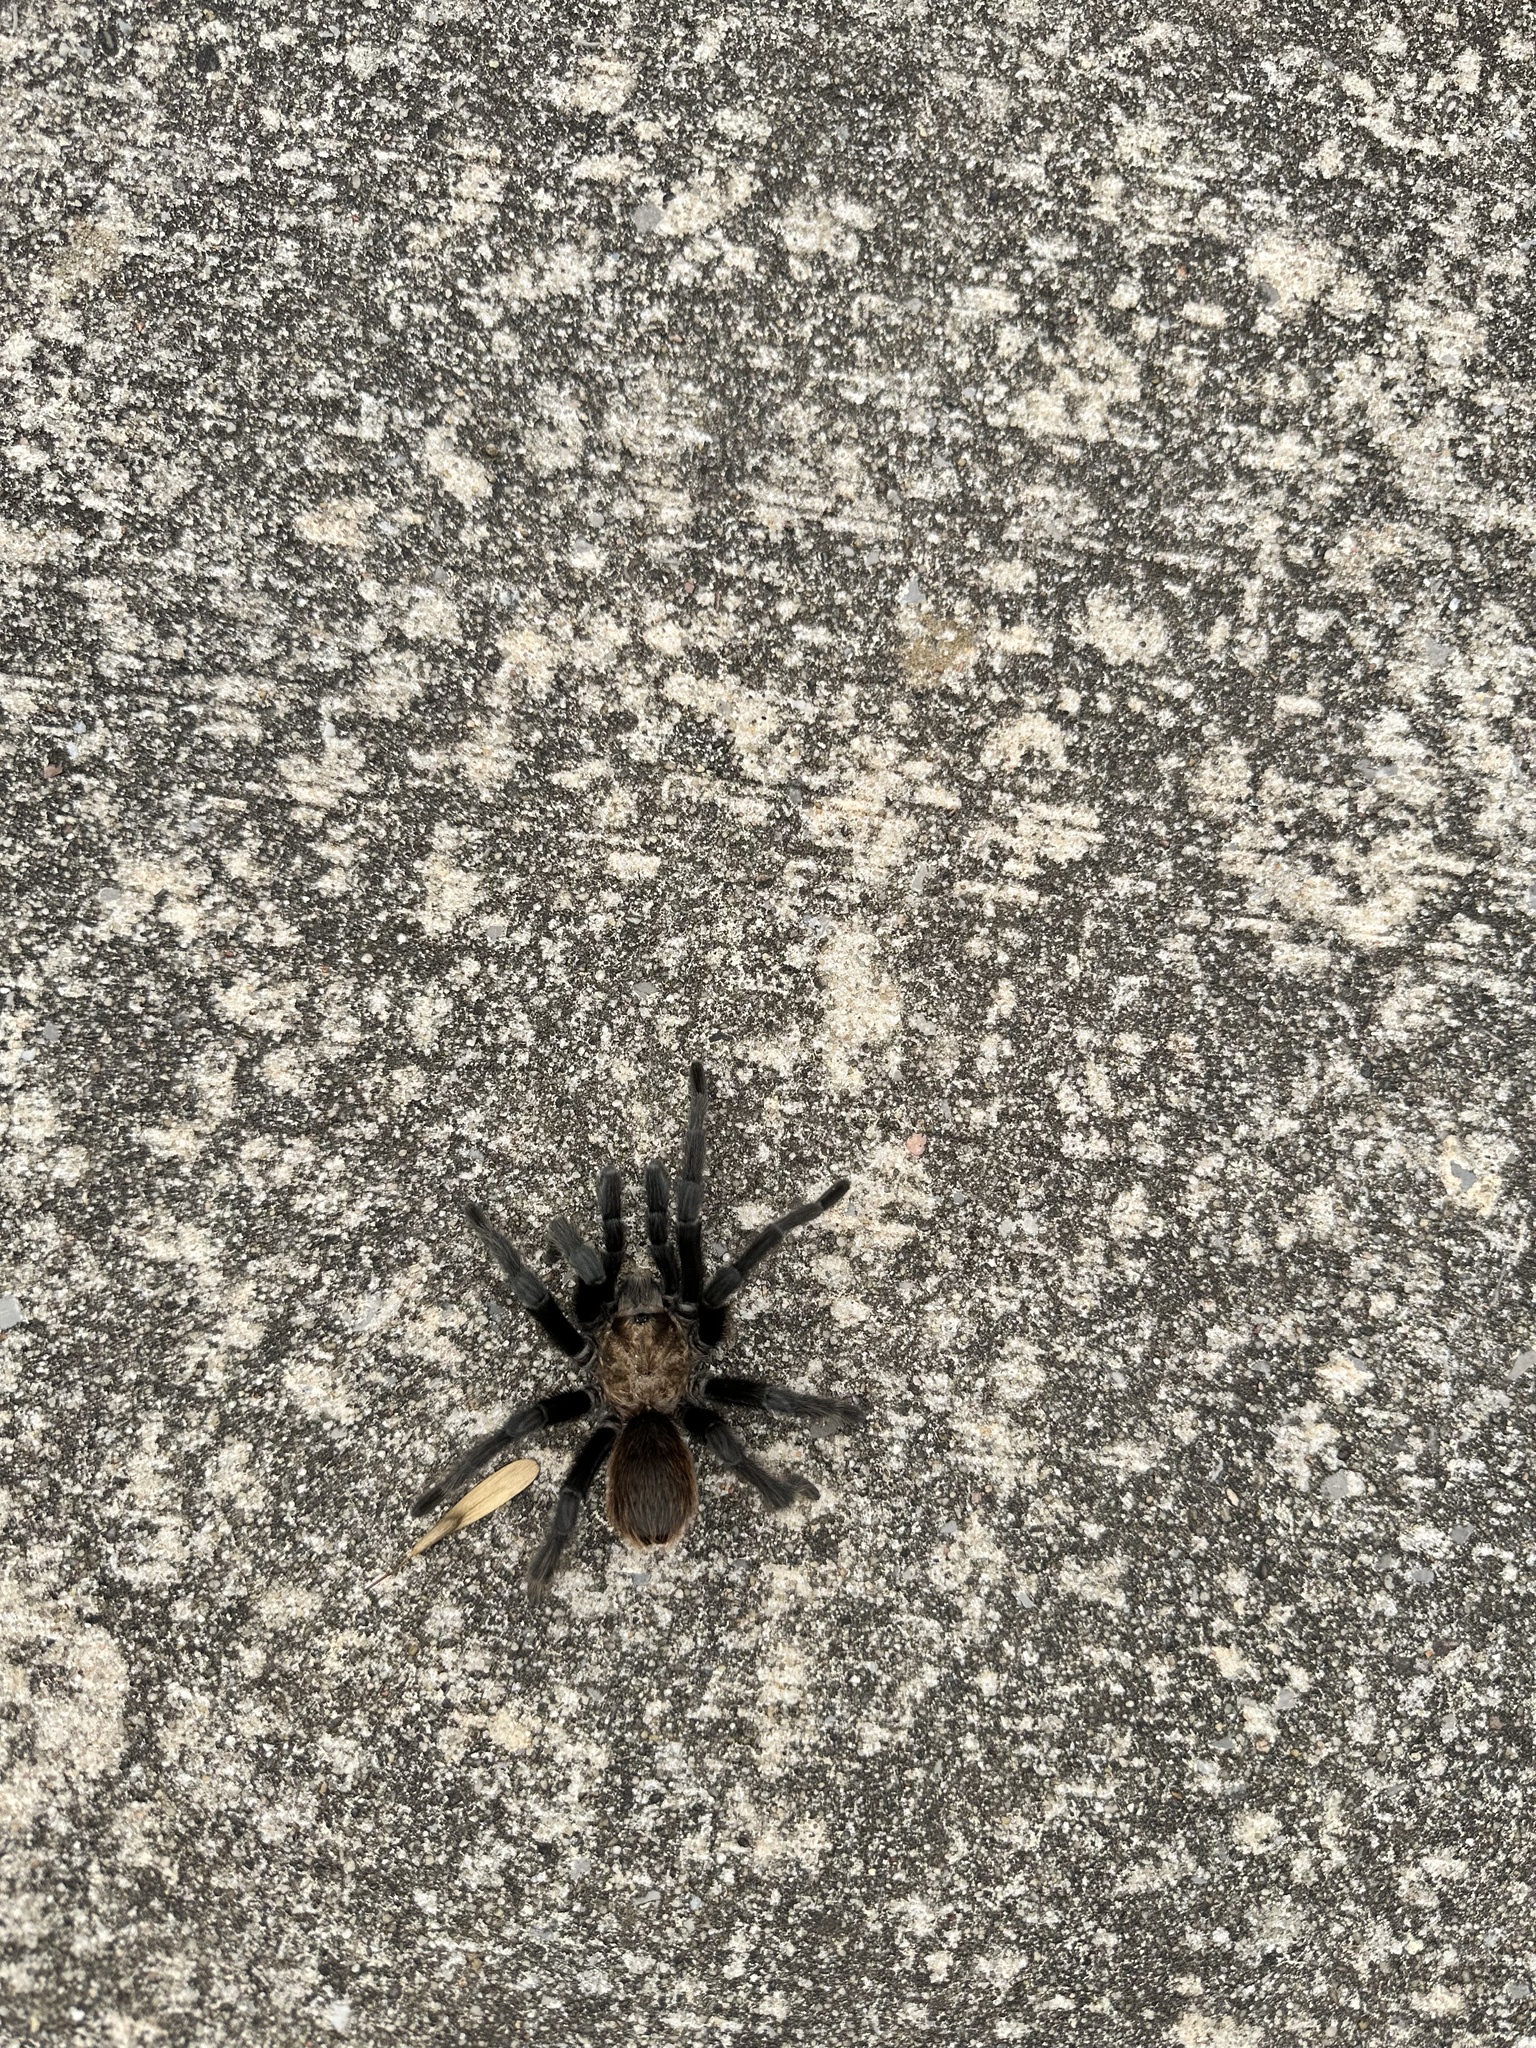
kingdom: Animalia
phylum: Arthropoda
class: Arachnida
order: Araneae
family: Theraphosidae
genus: Aphonopelma
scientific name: Aphonopelma hentzi
